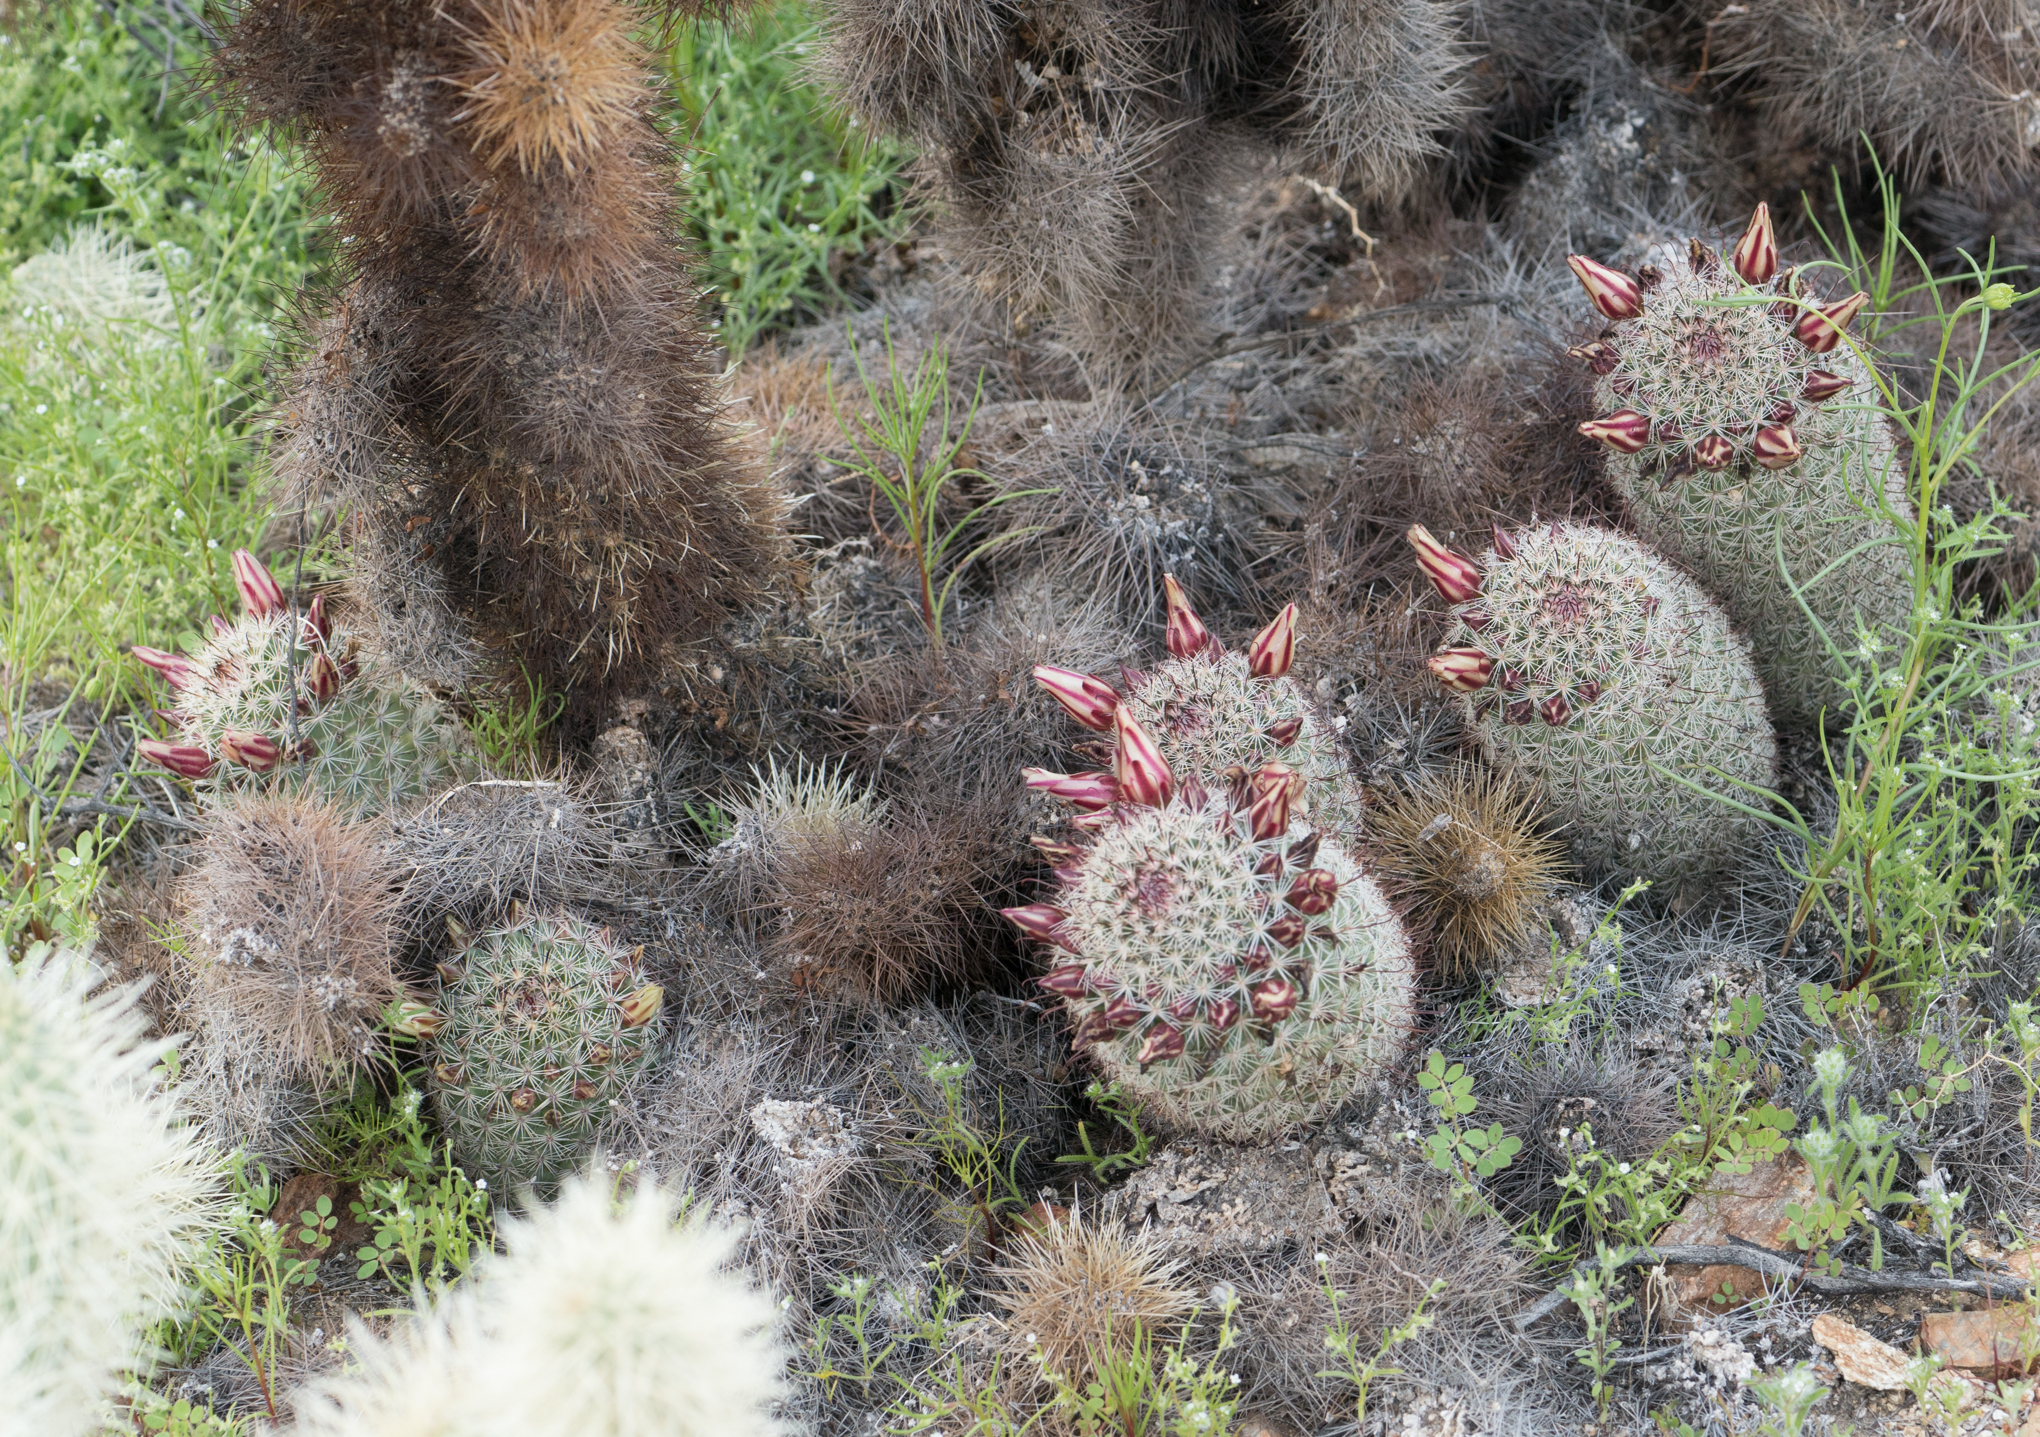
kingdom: Plantae
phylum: Tracheophyta
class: Magnoliopsida
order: Caryophyllales
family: Cactaceae
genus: Cochemiea
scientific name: Cochemiea dioica
